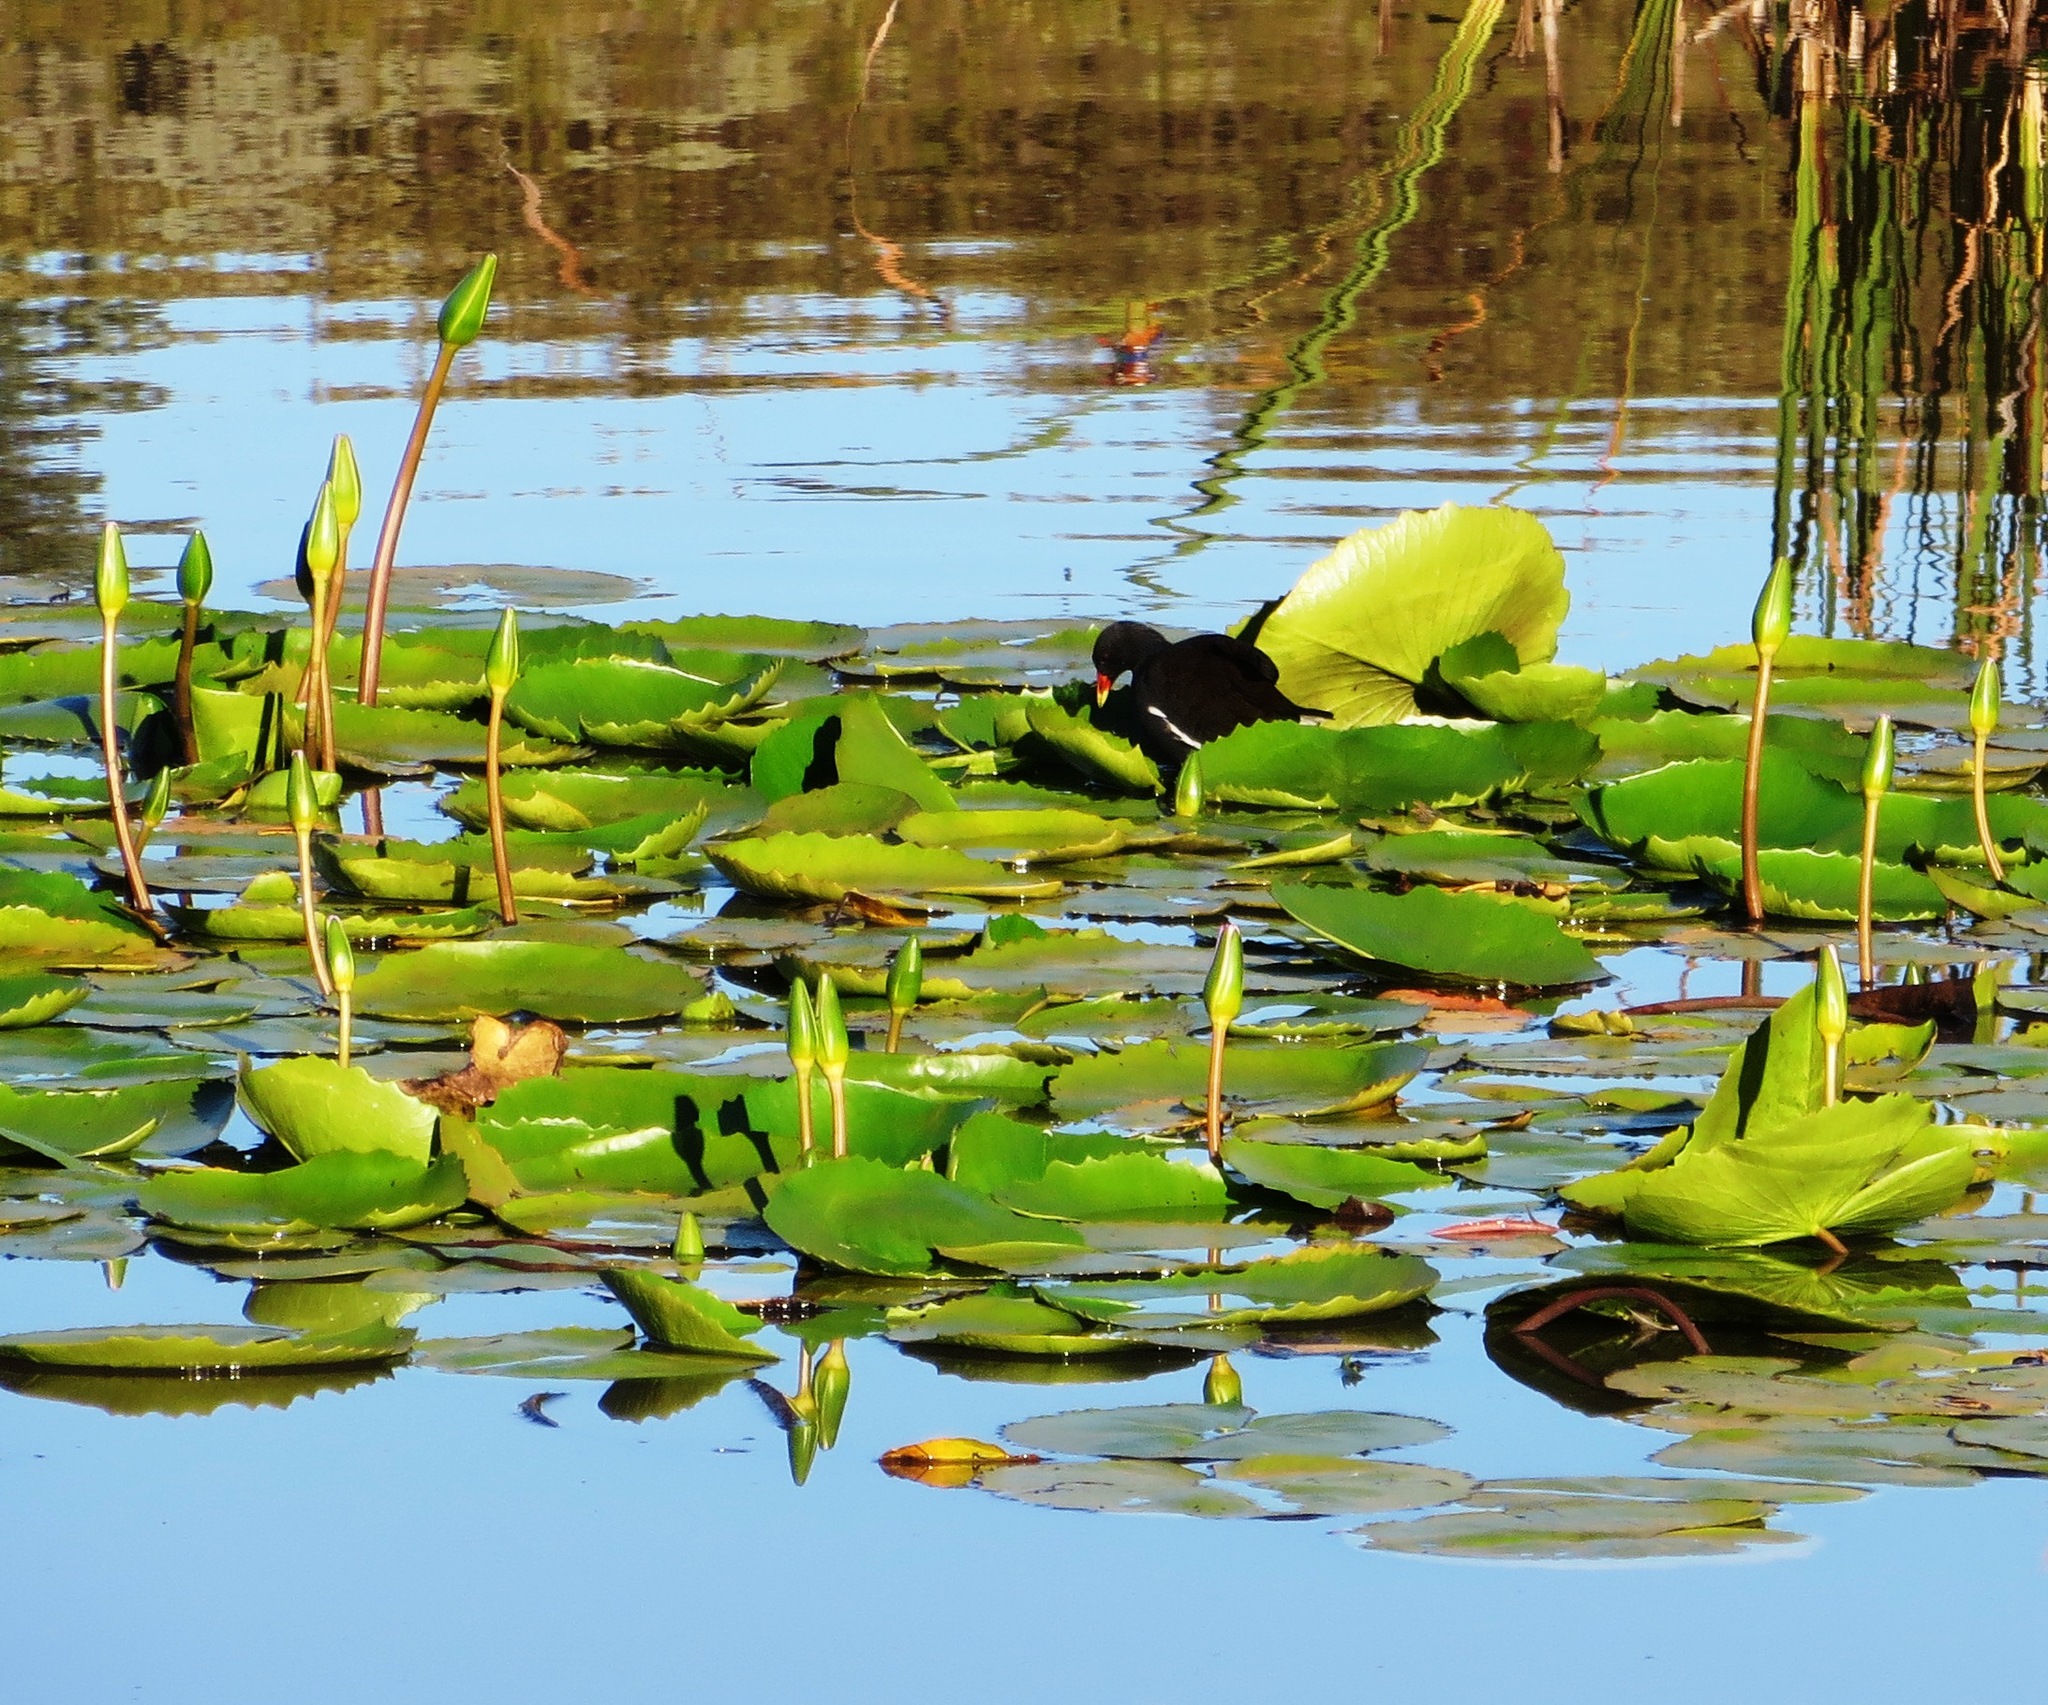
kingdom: Animalia
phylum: Chordata
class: Aves
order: Gruiformes
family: Rallidae
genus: Gallinula
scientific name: Gallinula chloropus
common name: Common moorhen
